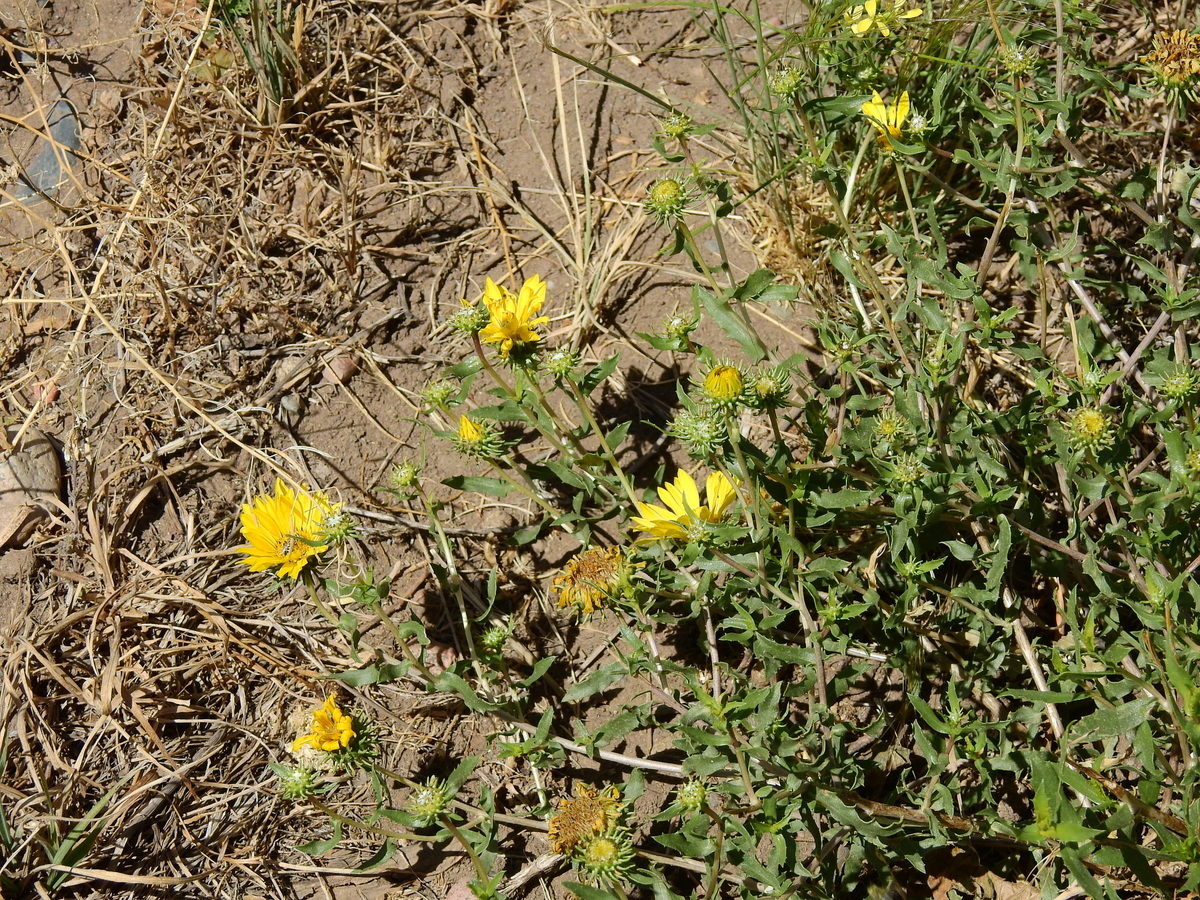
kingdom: Plantae
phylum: Tracheophyta
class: Magnoliopsida
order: Asterales
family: Asteraceae
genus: Grindelia
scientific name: Grindelia pulchella
